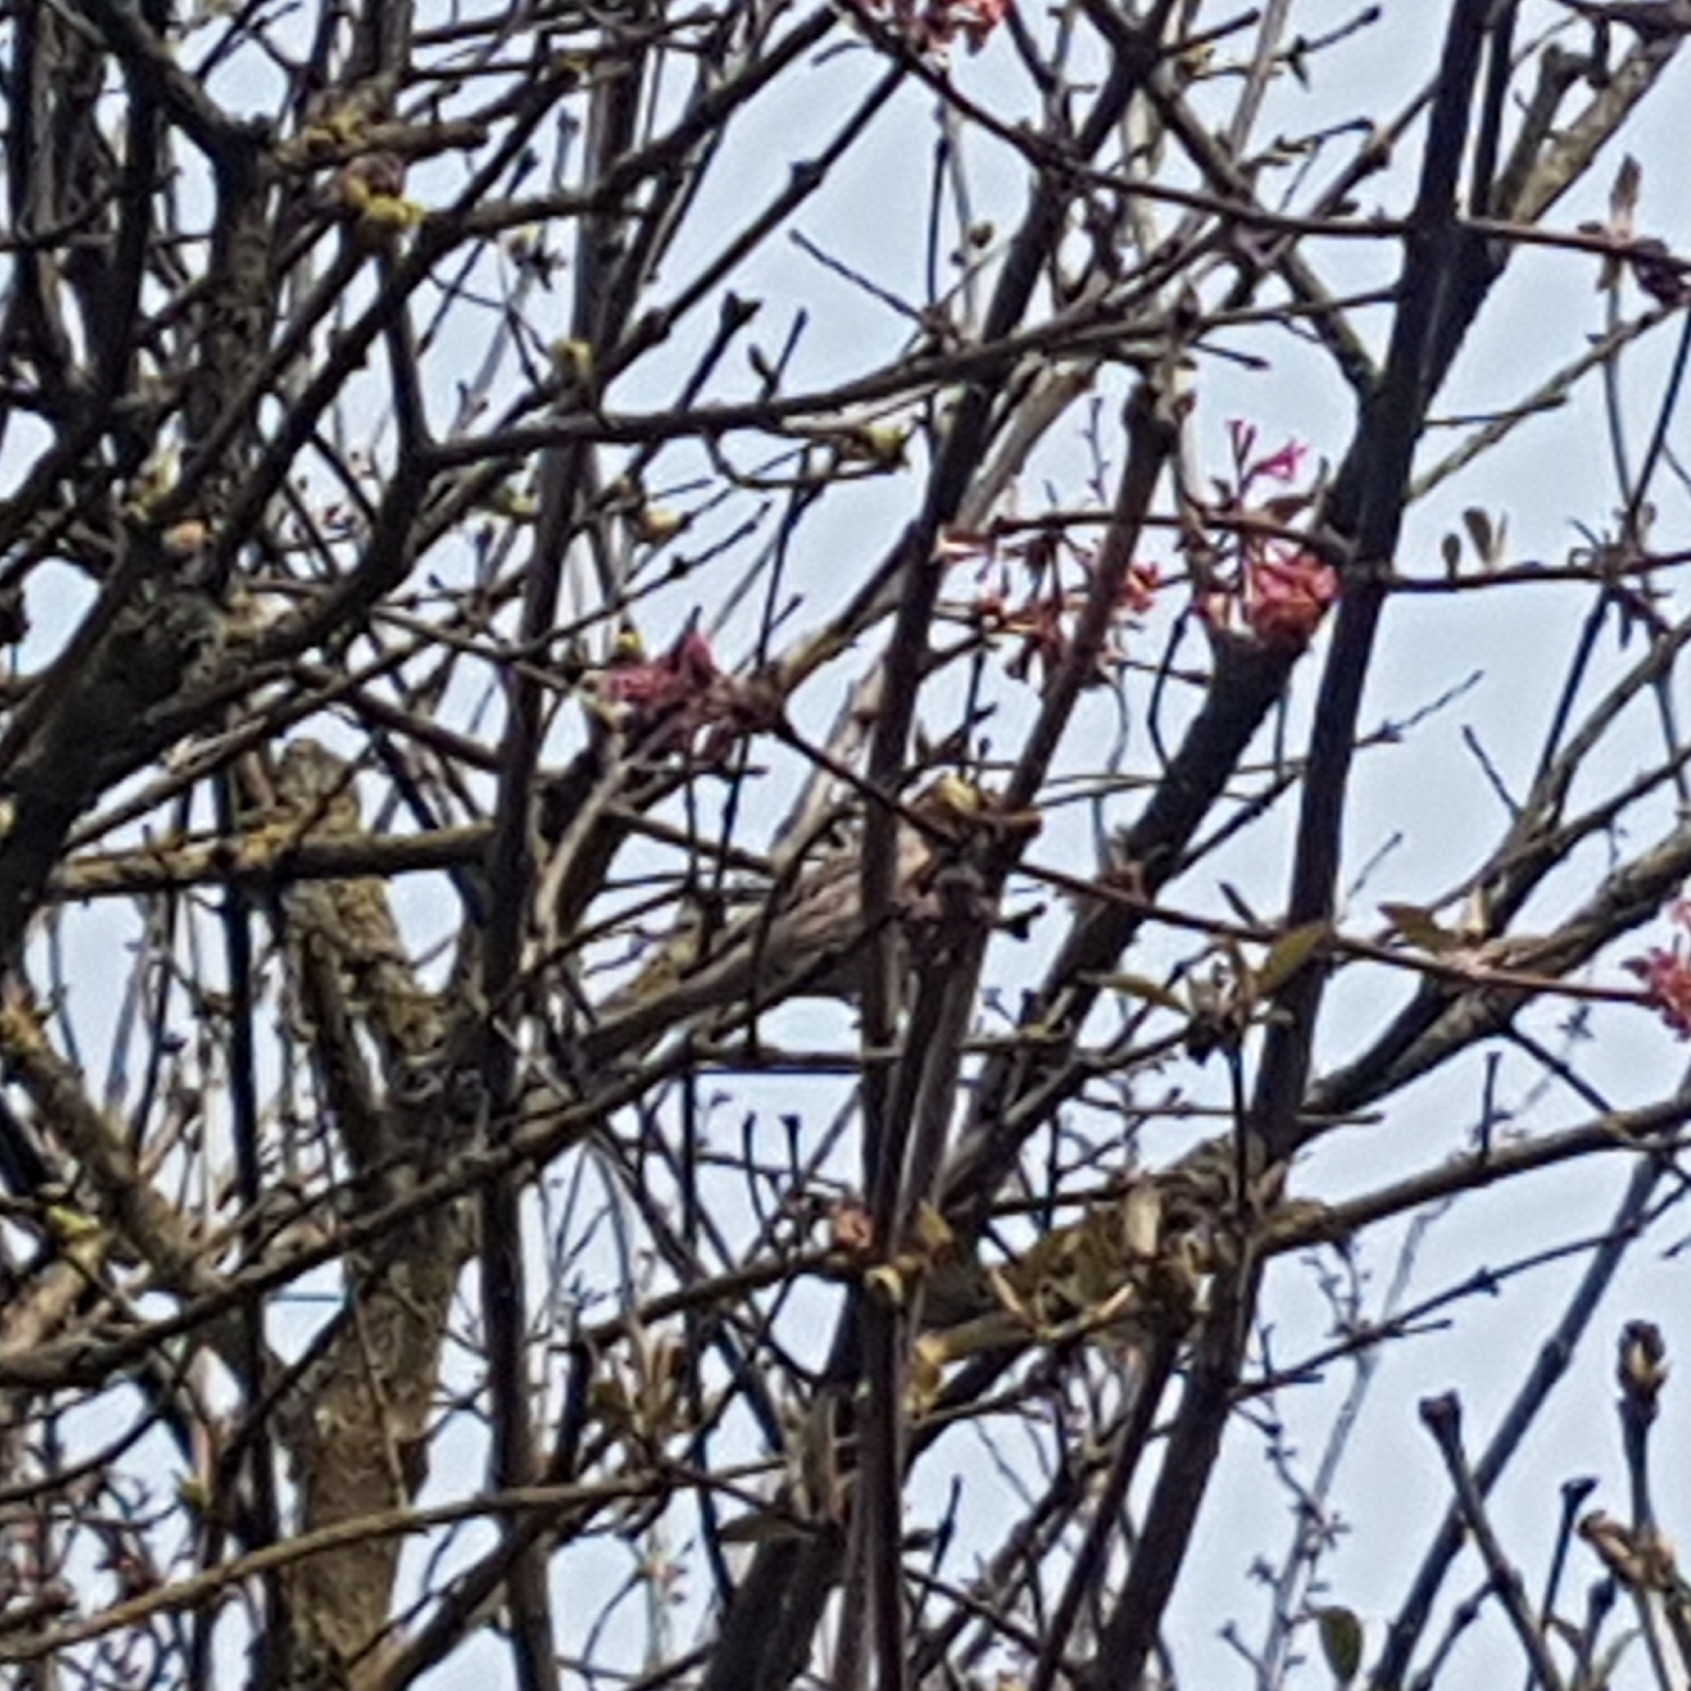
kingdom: Animalia
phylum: Chordata
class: Aves
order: Passeriformes
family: Fringillidae
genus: Haemorhous
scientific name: Haemorhous mexicanus
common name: House finch
